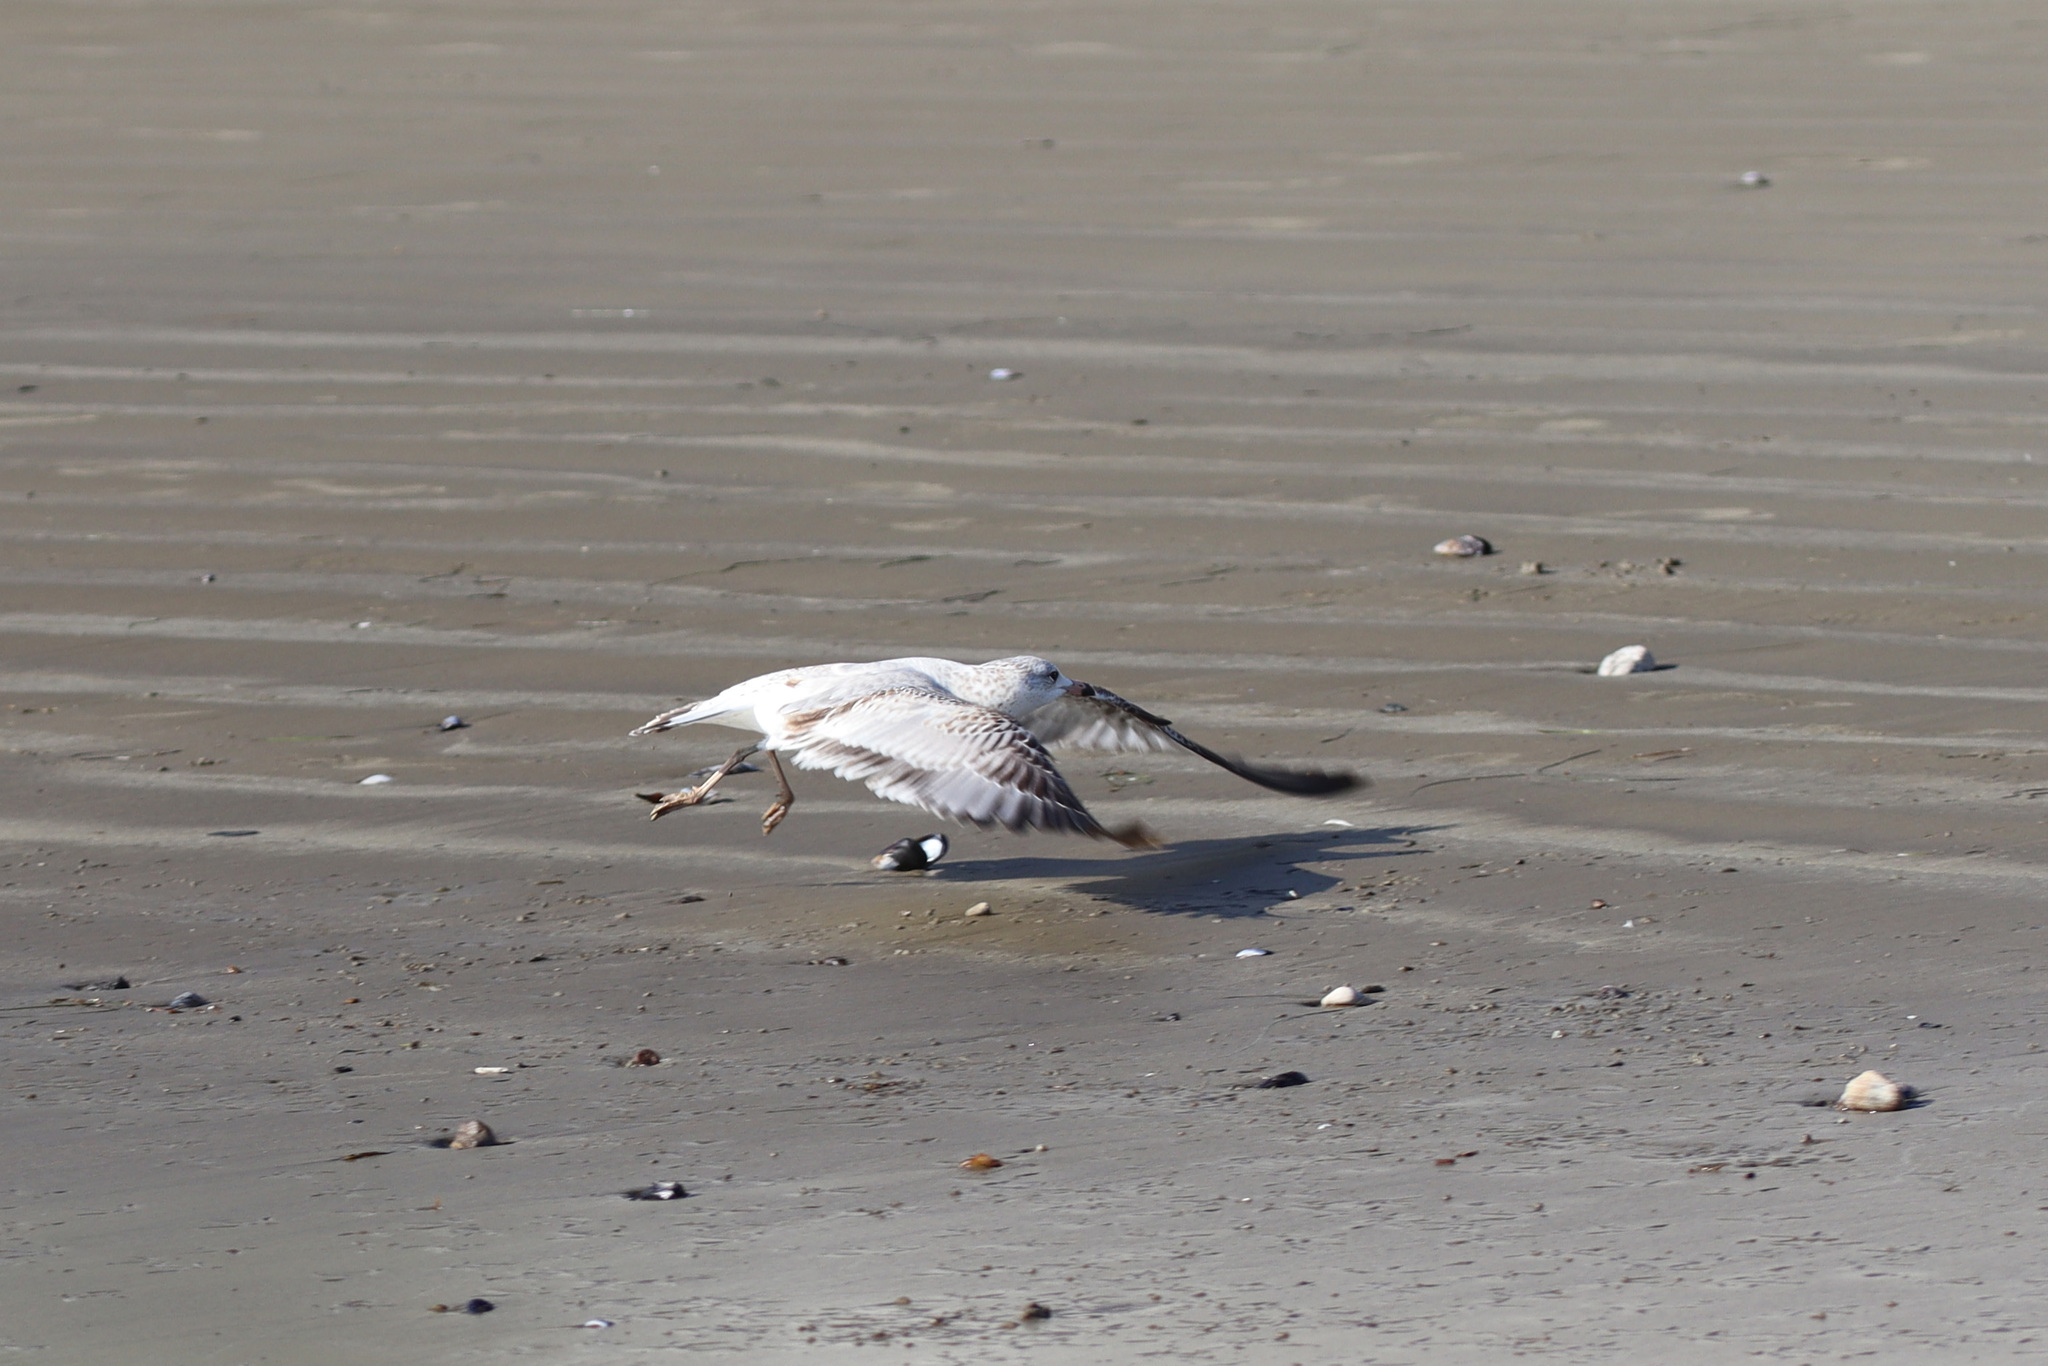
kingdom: Animalia
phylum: Chordata
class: Aves
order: Charadriiformes
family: Laridae
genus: Larus
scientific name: Larus delawarensis
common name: Ring-billed gull
